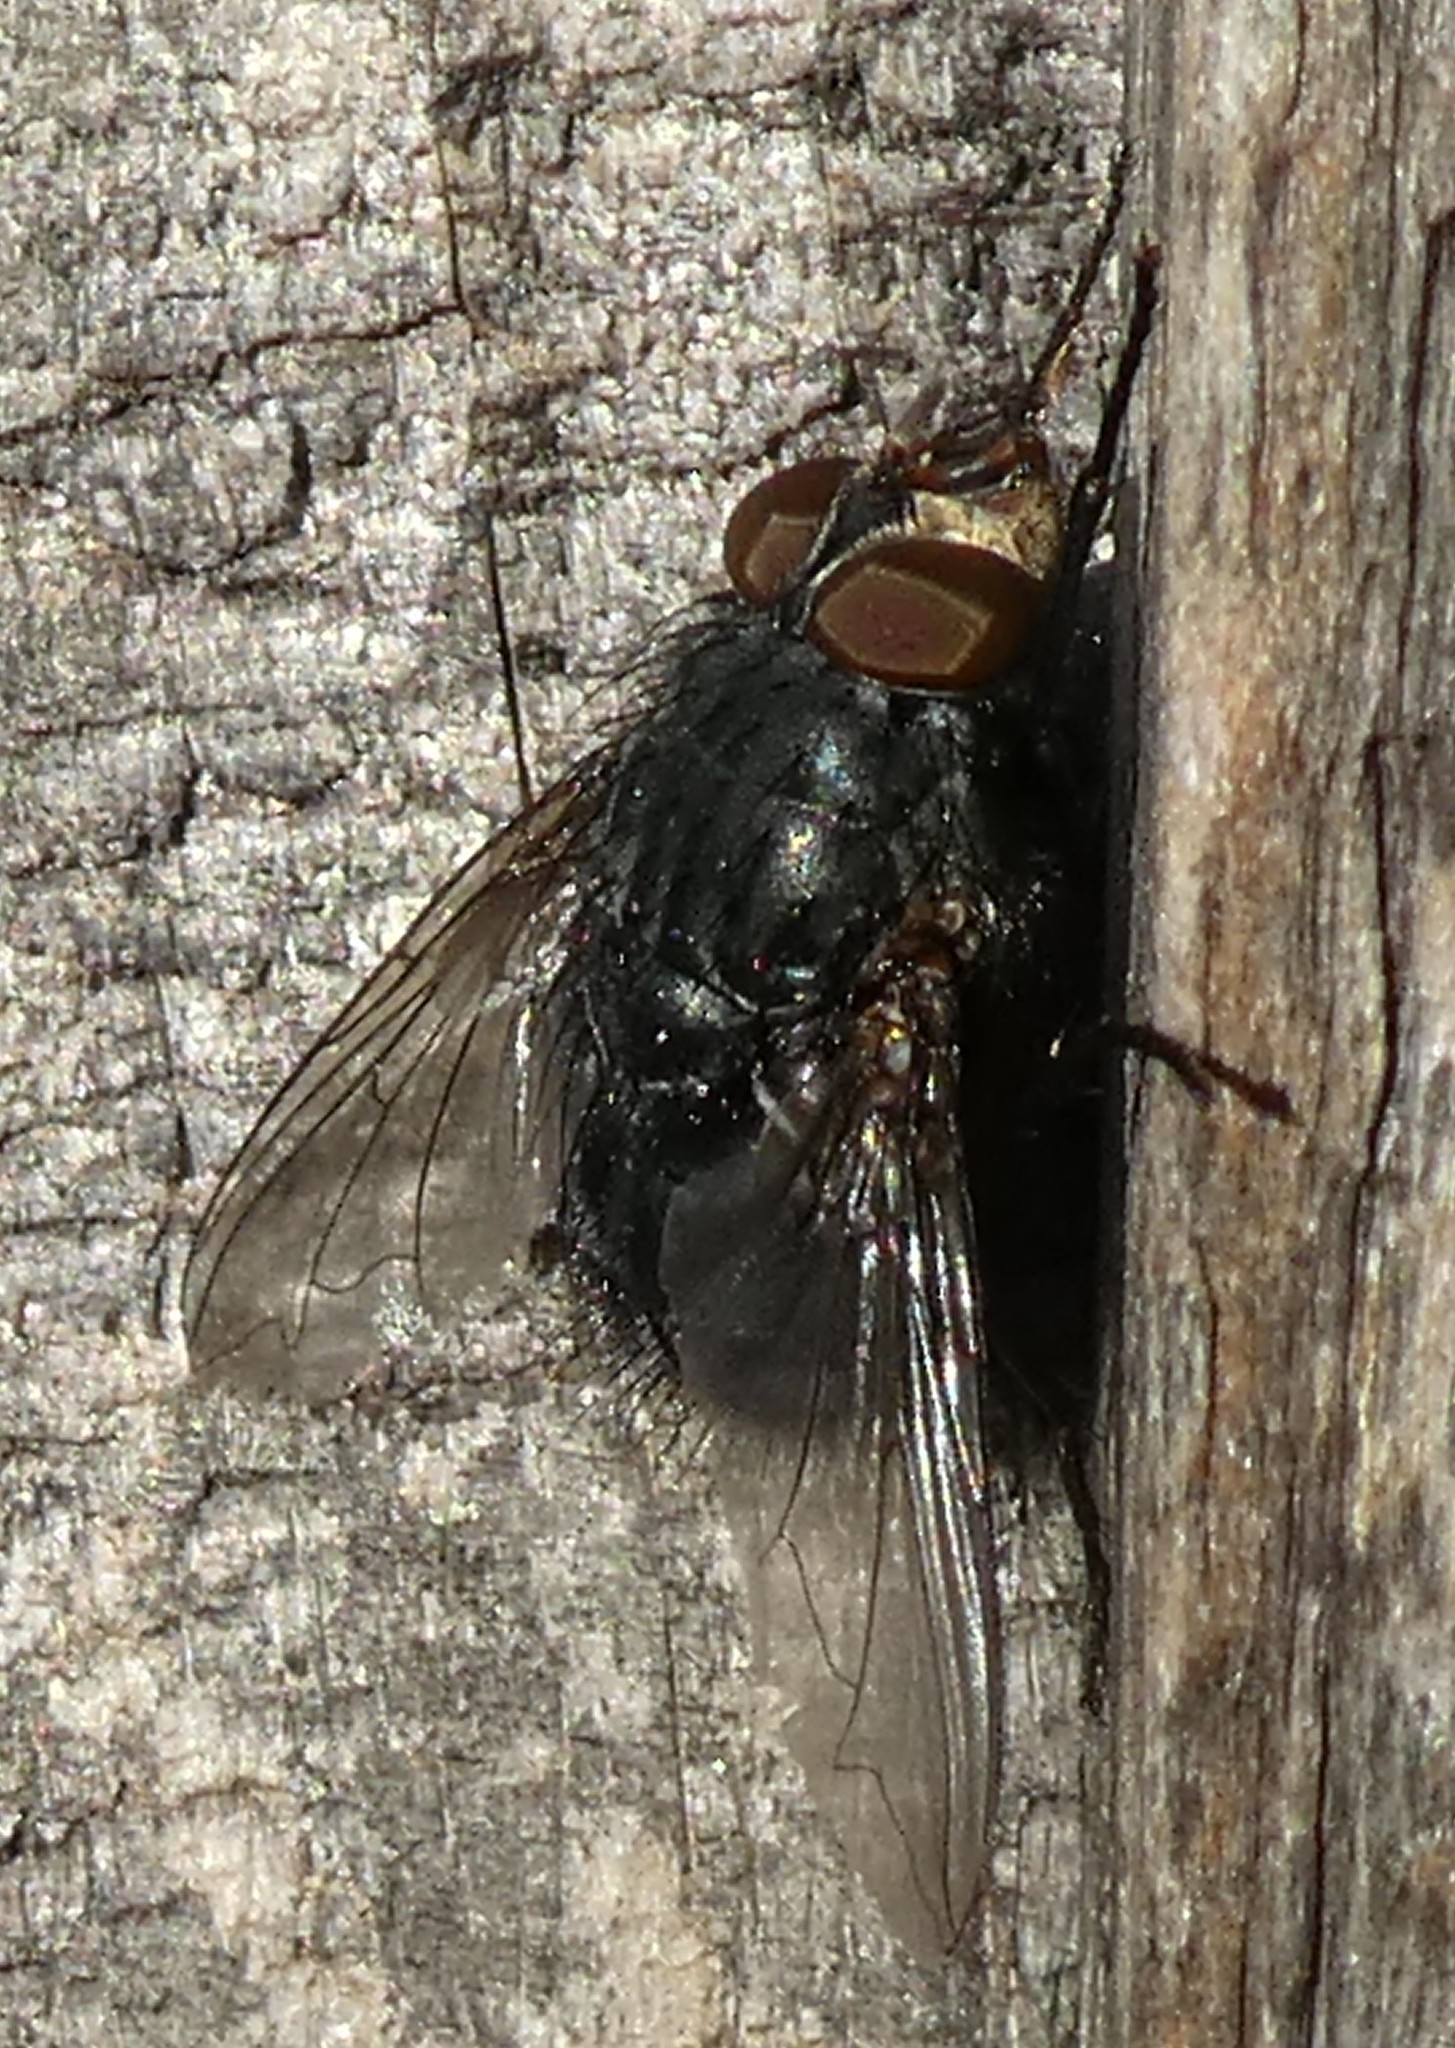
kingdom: Animalia
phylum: Arthropoda
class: Insecta
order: Diptera
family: Calliphoridae
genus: Calliphora
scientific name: Calliphora vicina
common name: Common blow flie
